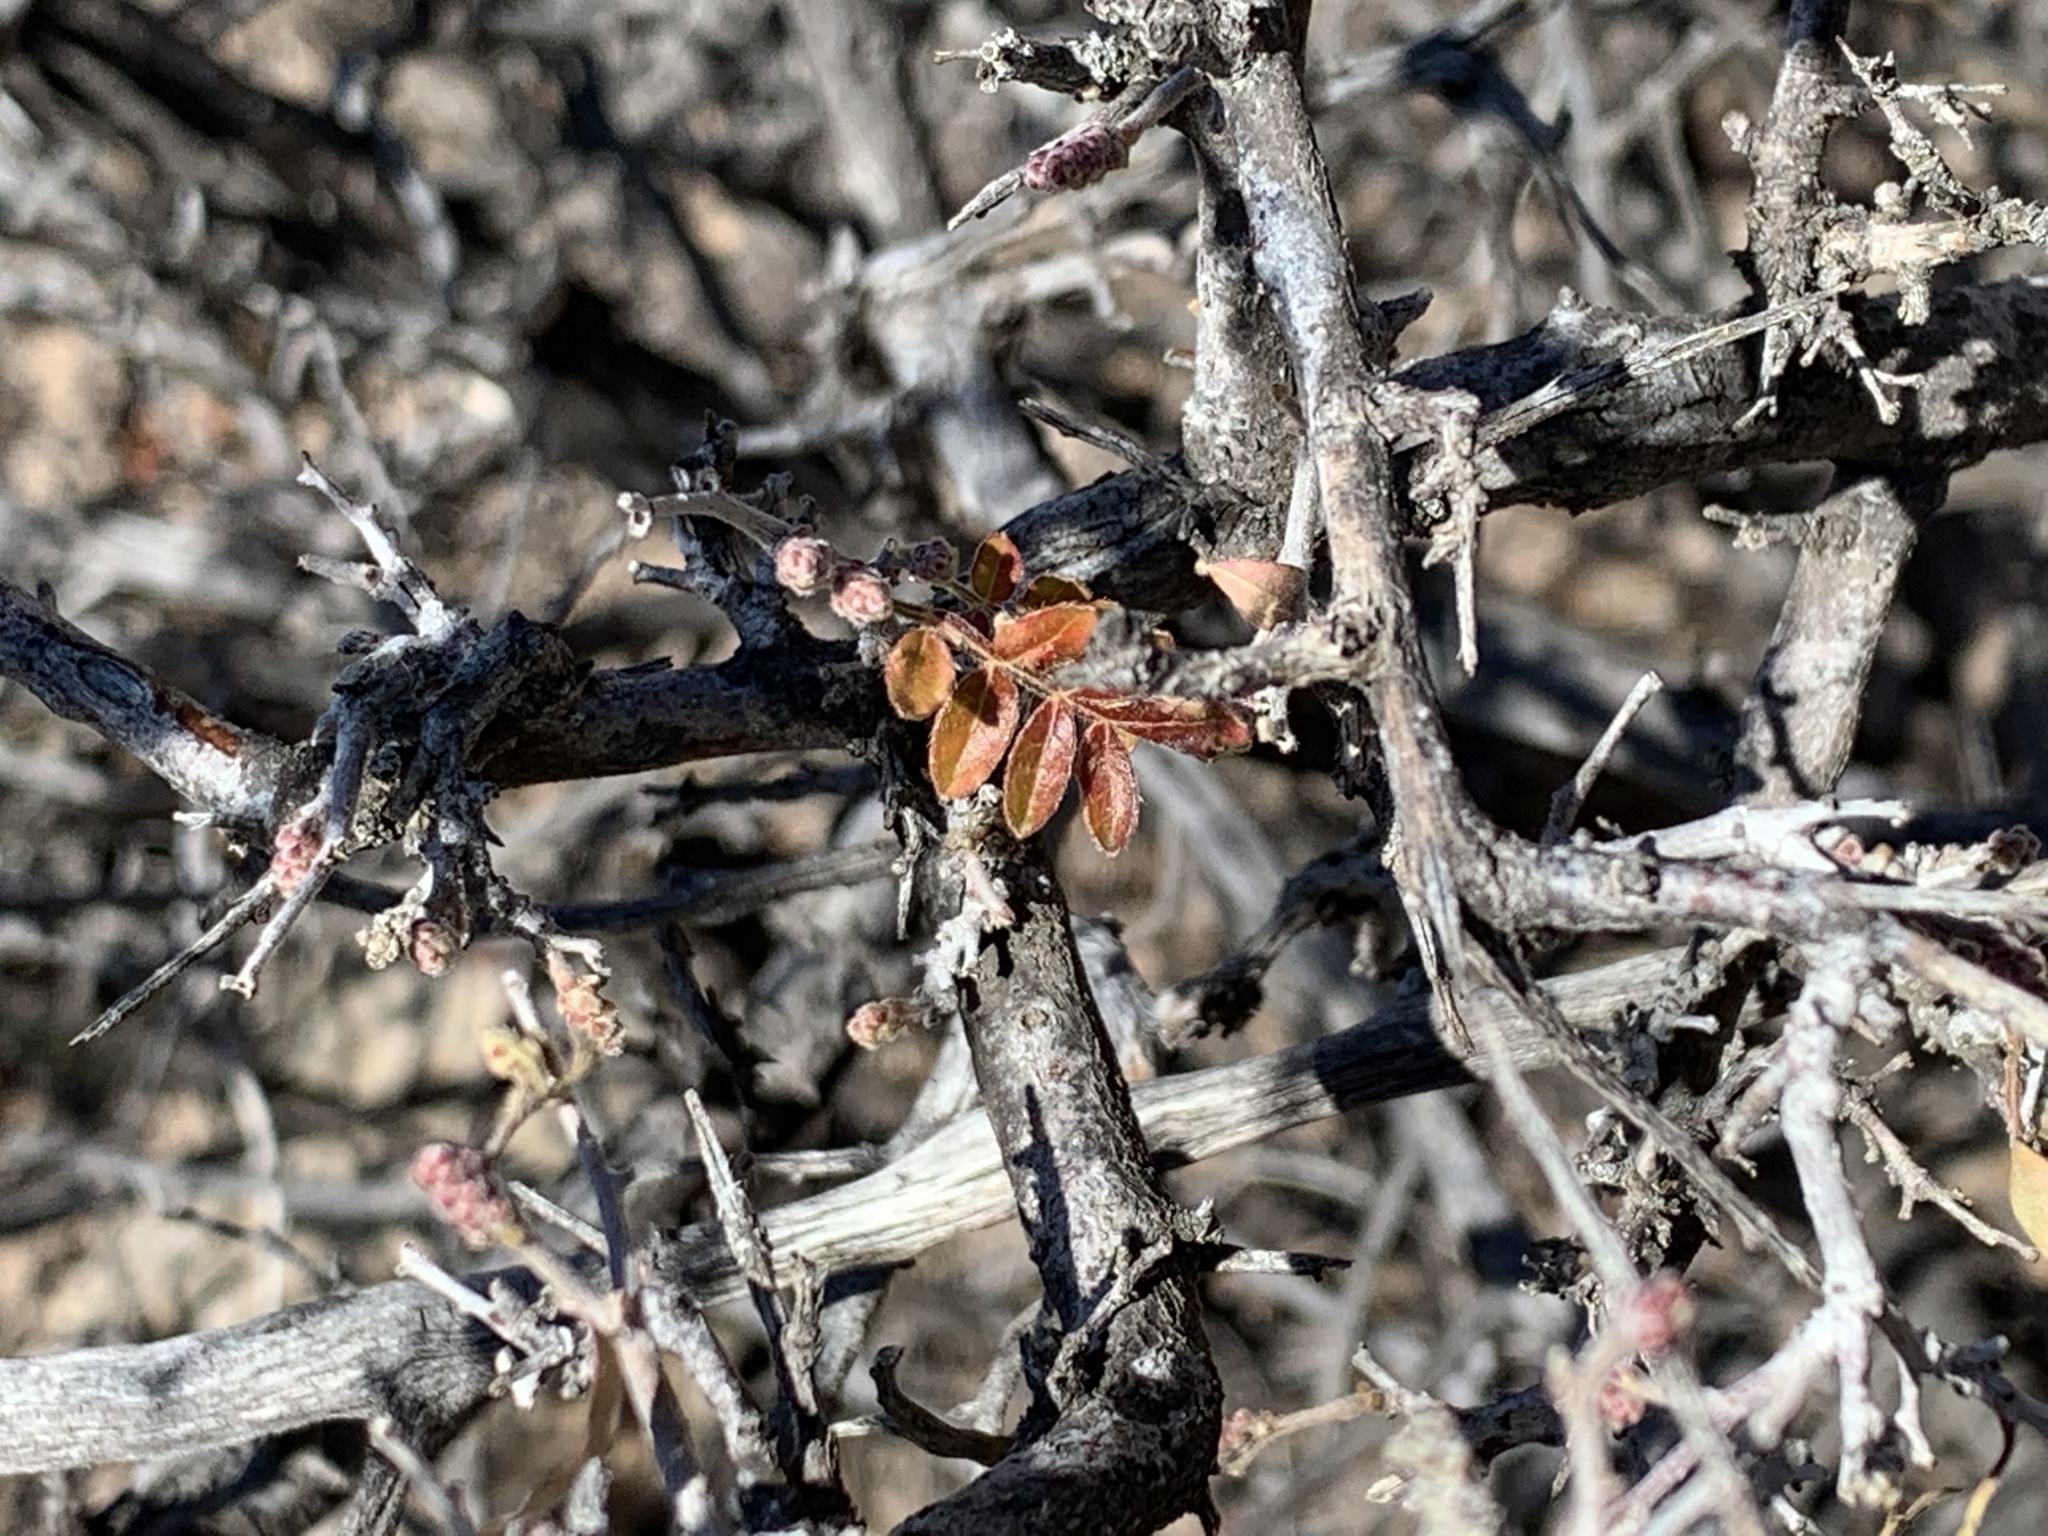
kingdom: Plantae
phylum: Tracheophyta
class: Magnoliopsida
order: Sapindales
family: Anacardiaceae
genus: Rhus
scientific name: Rhus microphylla
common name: Desert sumac
